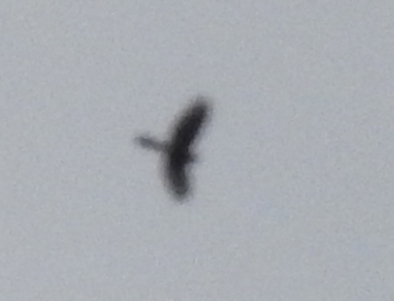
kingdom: Animalia
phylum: Chordata
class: Aves
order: Accipitriformes
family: Accipitridae
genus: Accipiter
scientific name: Accipiter striatus
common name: Sharp-shinned hawk
